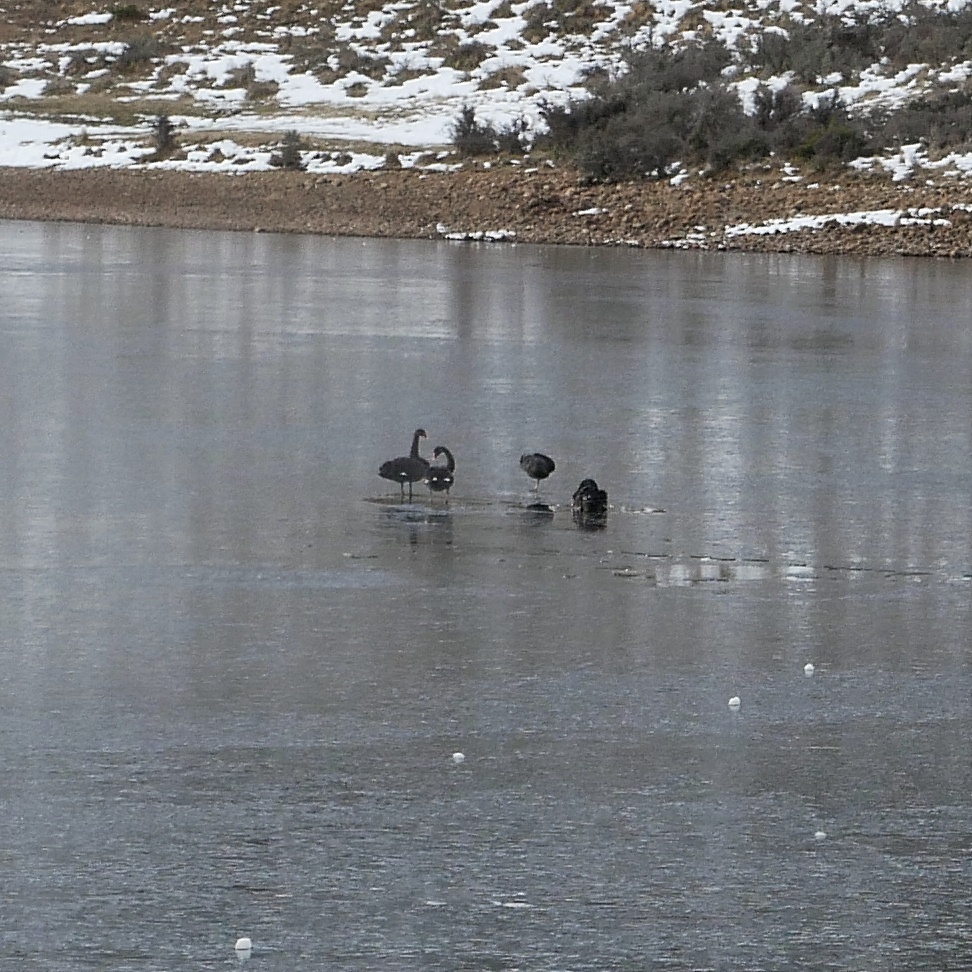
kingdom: Animalia
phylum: Chordata
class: Aves
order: Anseriformes
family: Anatidae
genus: Cygnus
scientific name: Cygnus atratus
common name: Black swan
